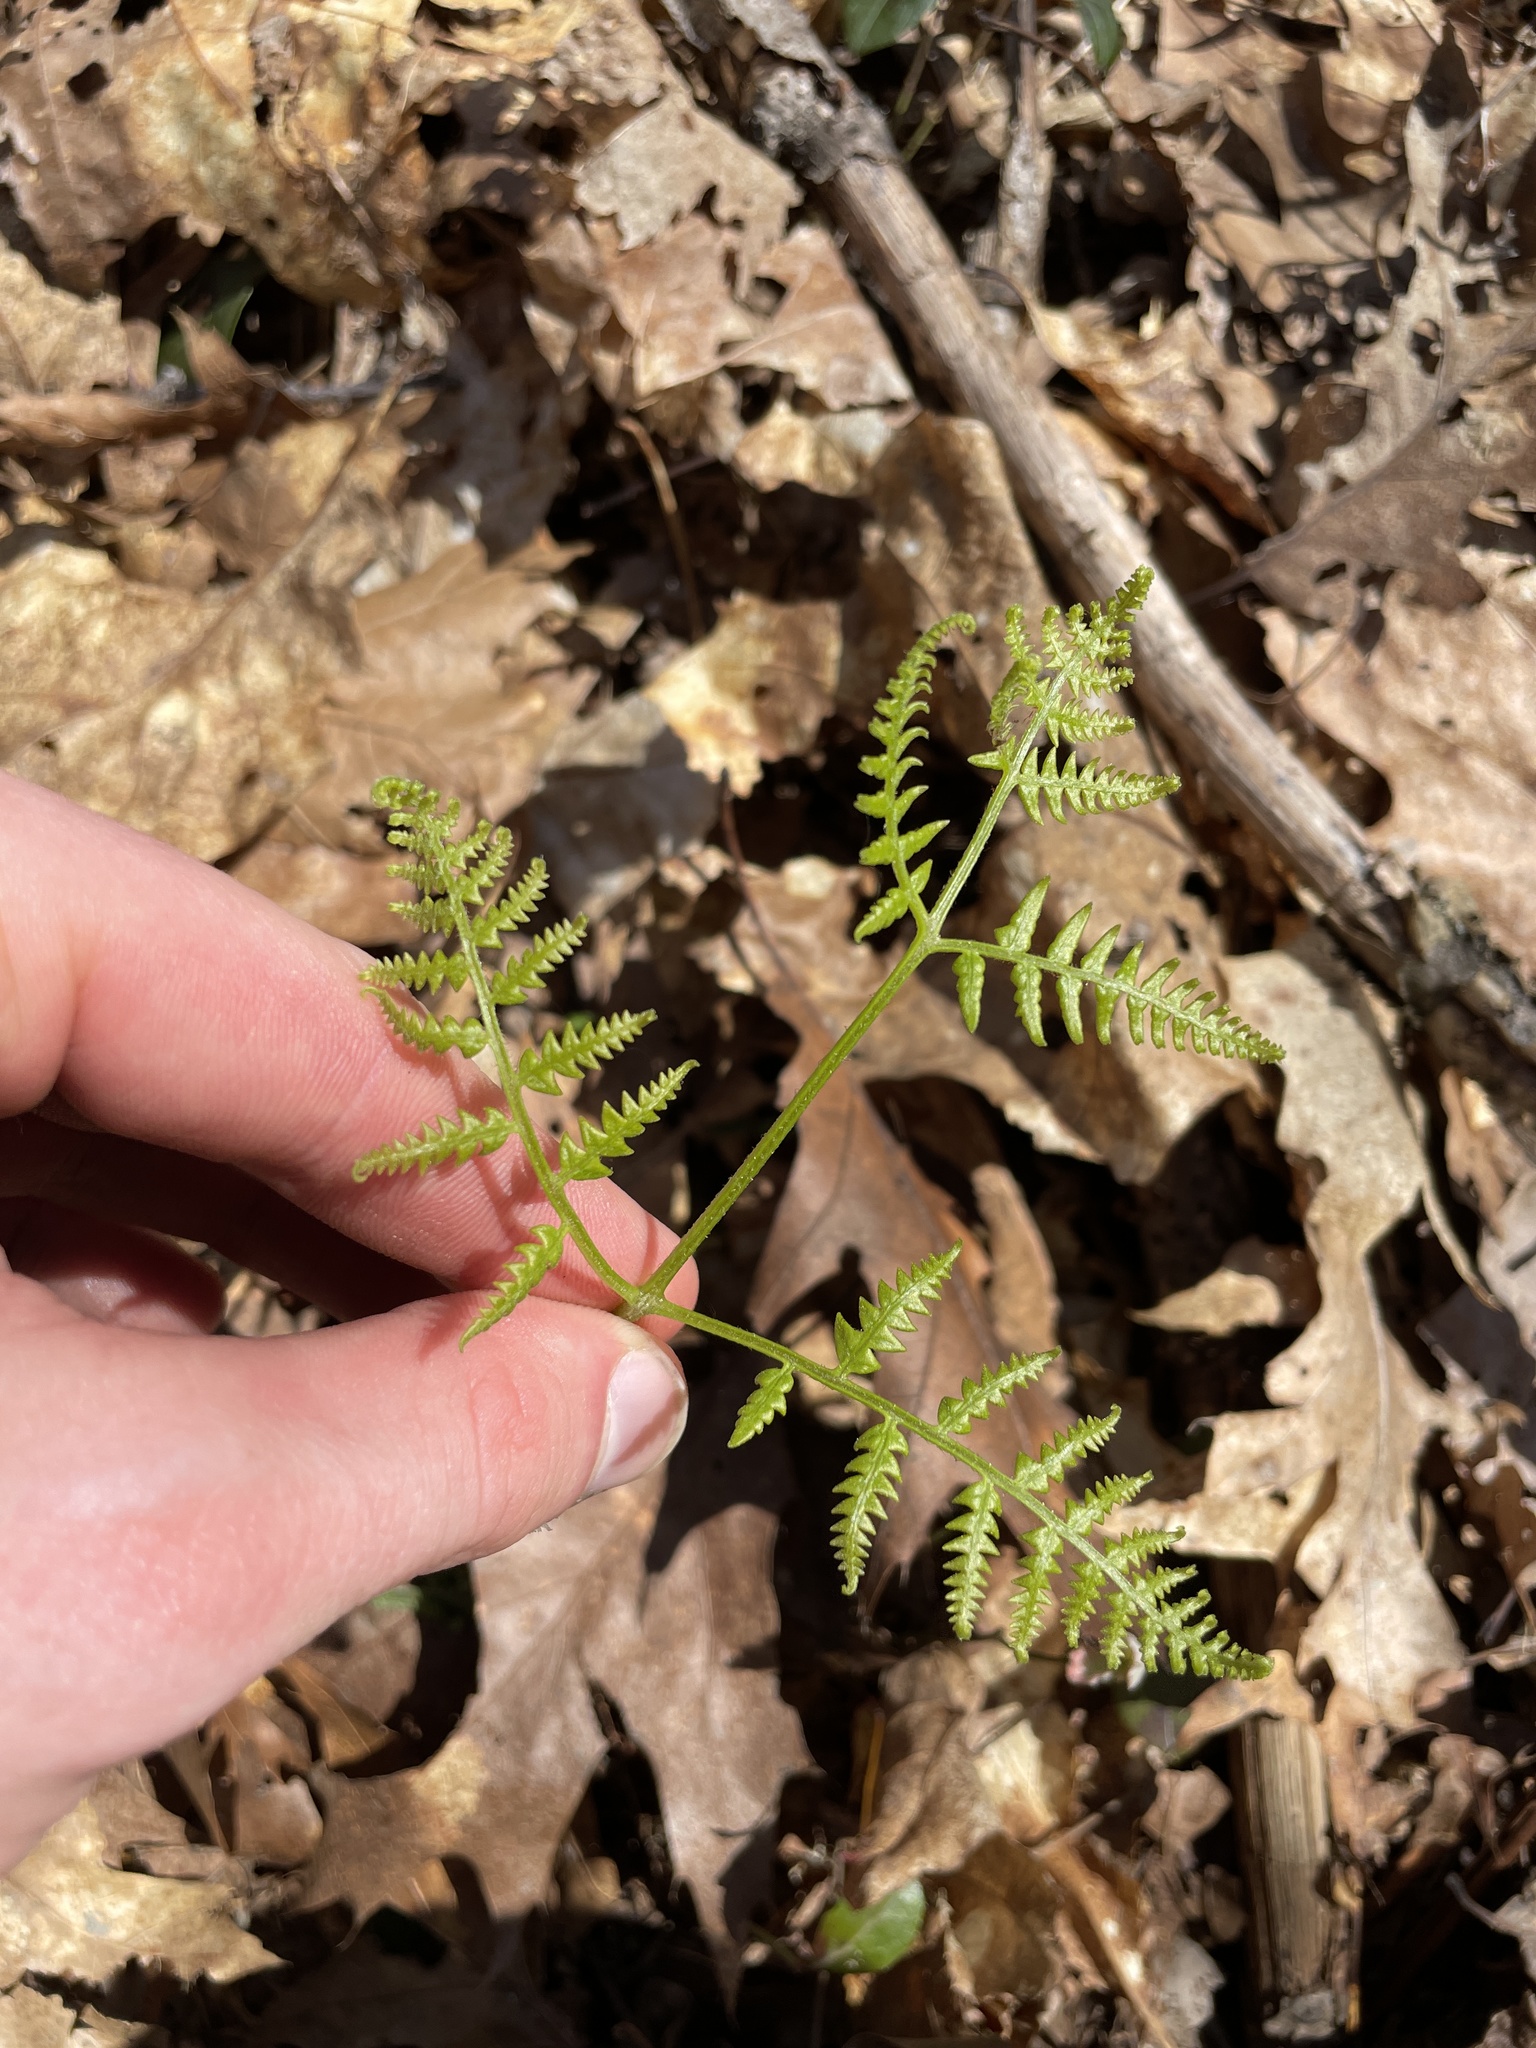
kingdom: Plantae
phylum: Tracheophyta
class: Polypodiopsida
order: Polypodiales
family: Dennstaedtiaceae
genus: Pteridium
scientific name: Pteridium aquilinum
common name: Bracken
